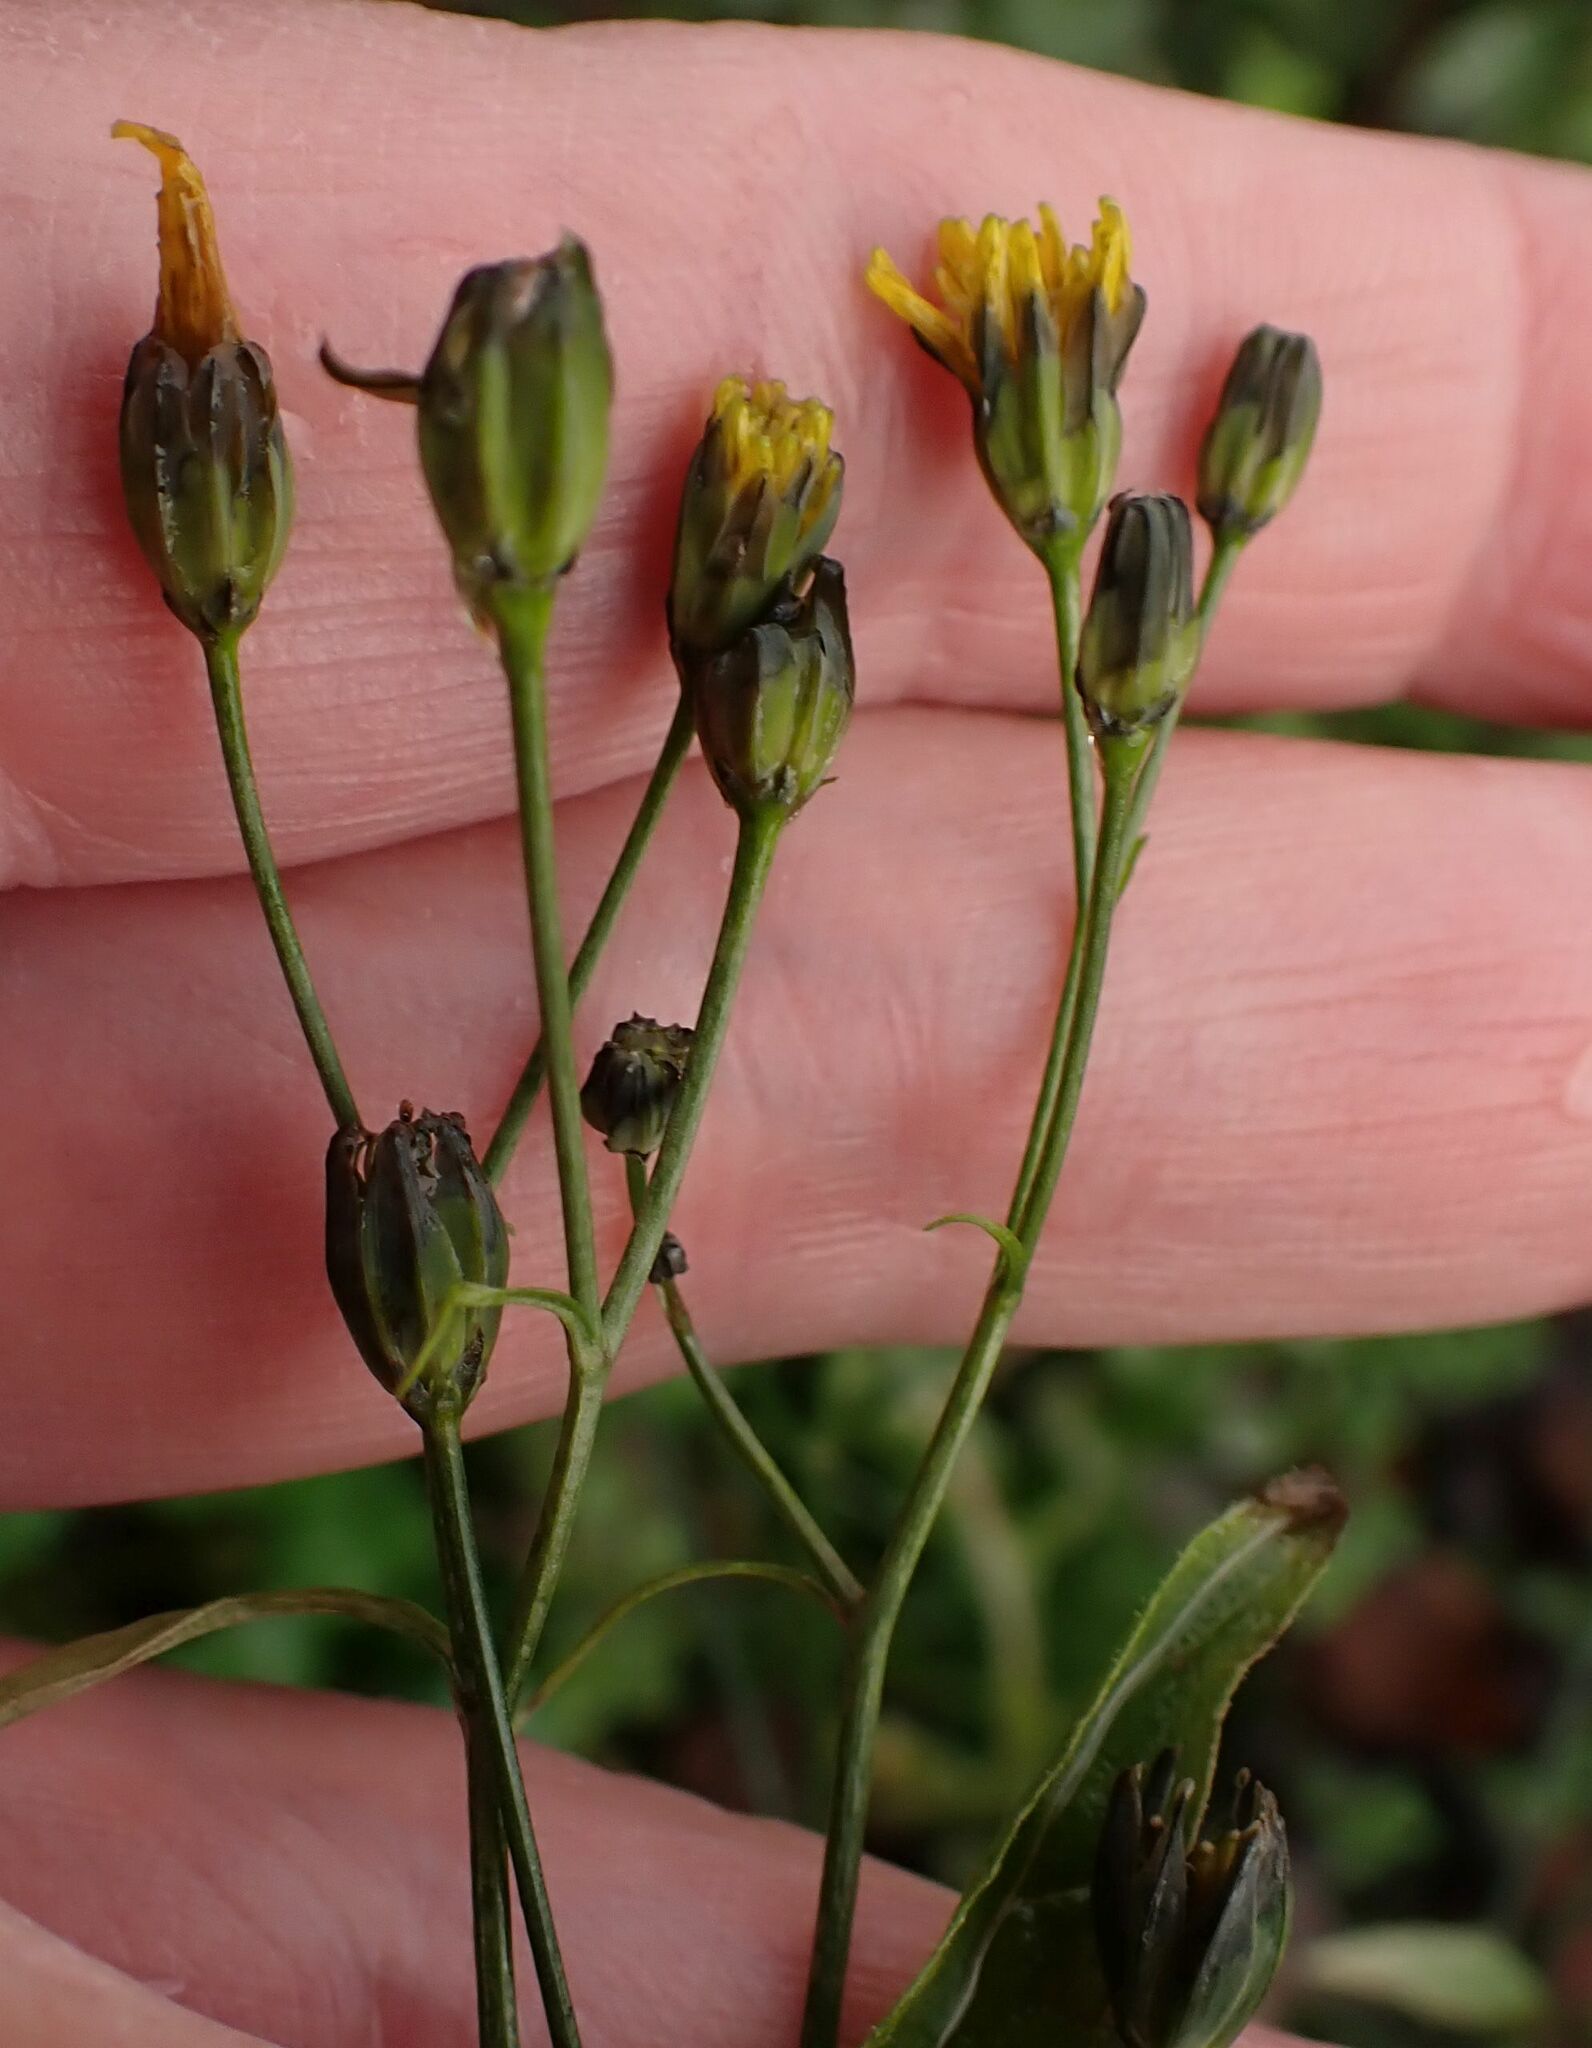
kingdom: Plantae
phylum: Tracheophyta
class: Magnoliopsida
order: Asterales
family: Asteraceae
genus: Lapsana
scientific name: Lapsana communis
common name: Nipplewort
